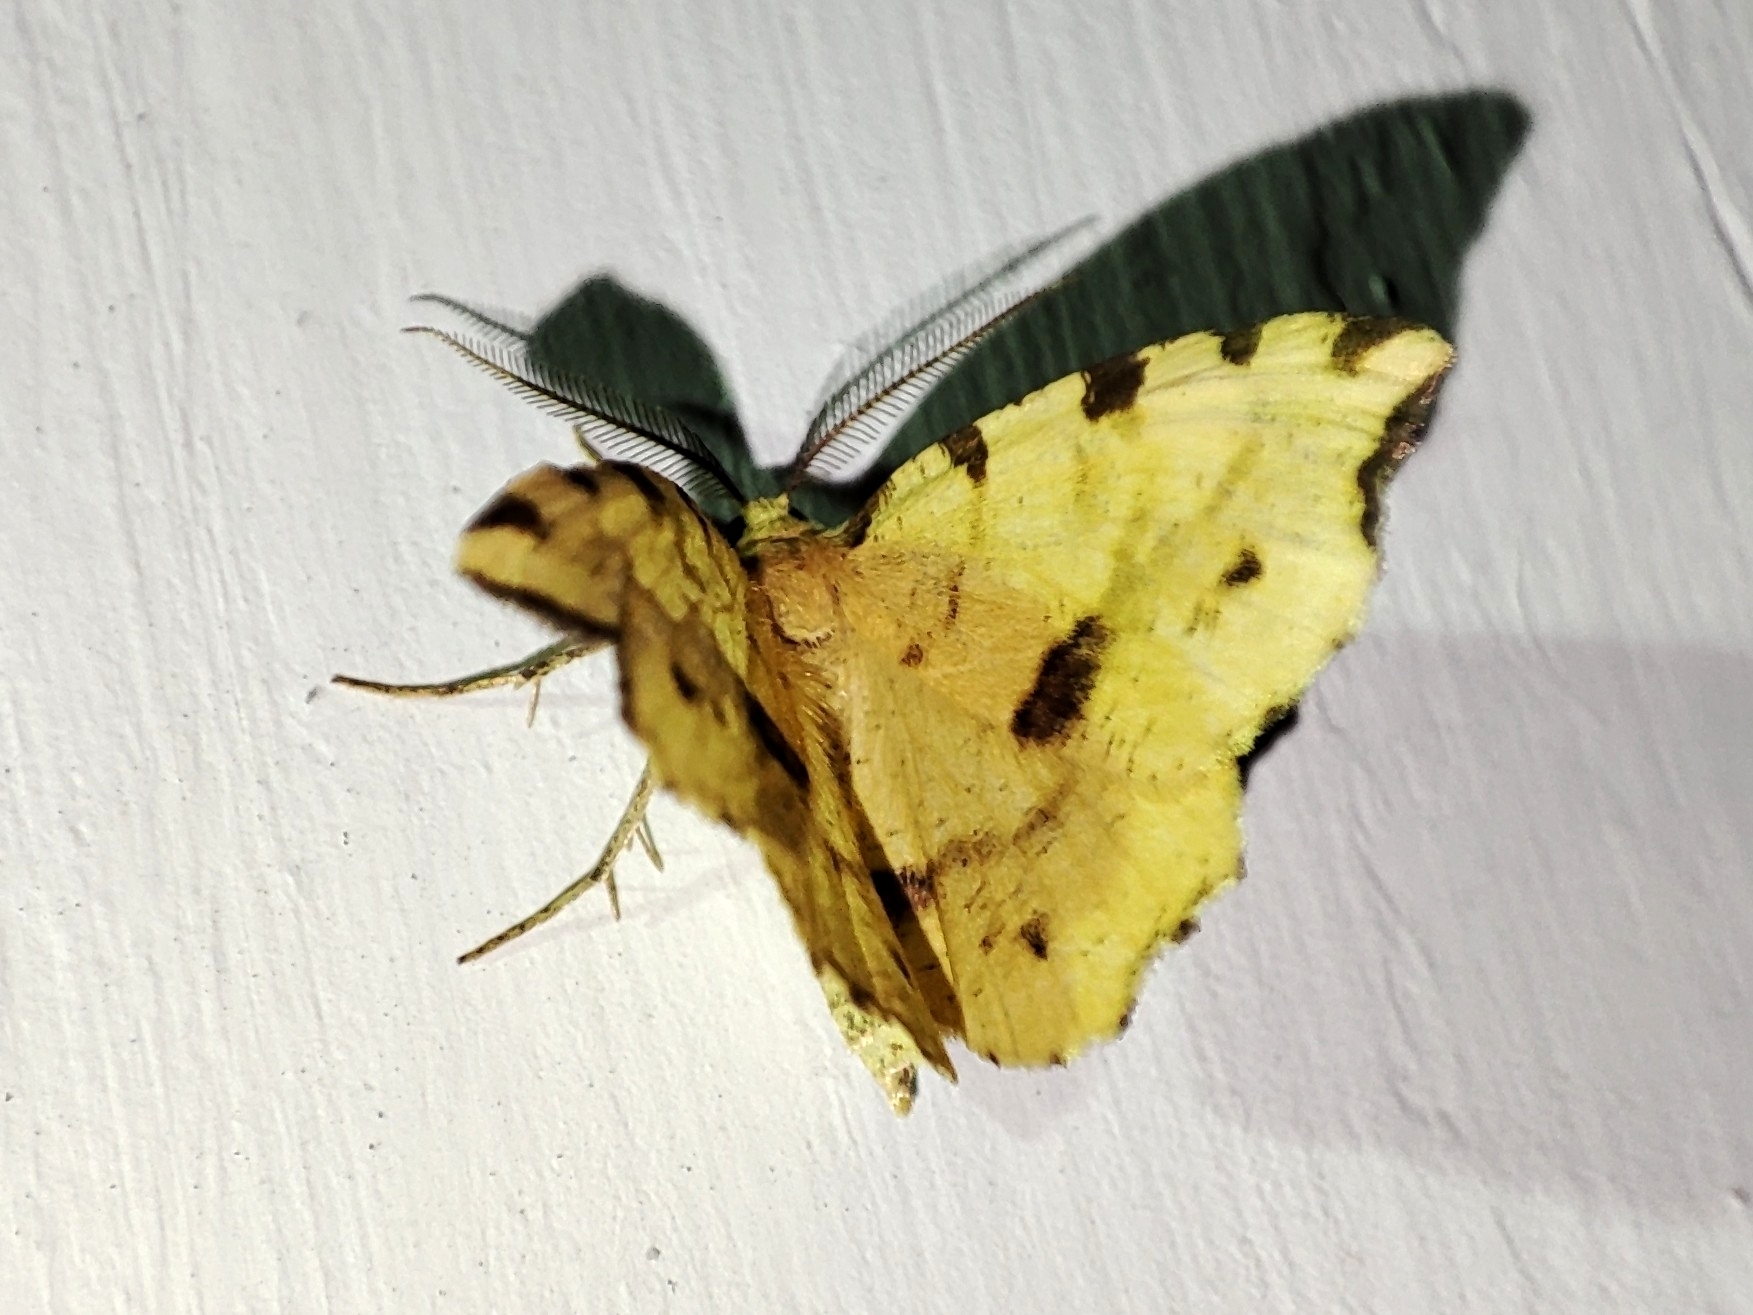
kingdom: Animalia
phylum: Arthropoda
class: Insecta
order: Lepidoptera
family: Geometridae
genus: Therapis
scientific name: Therapis flavicaria
